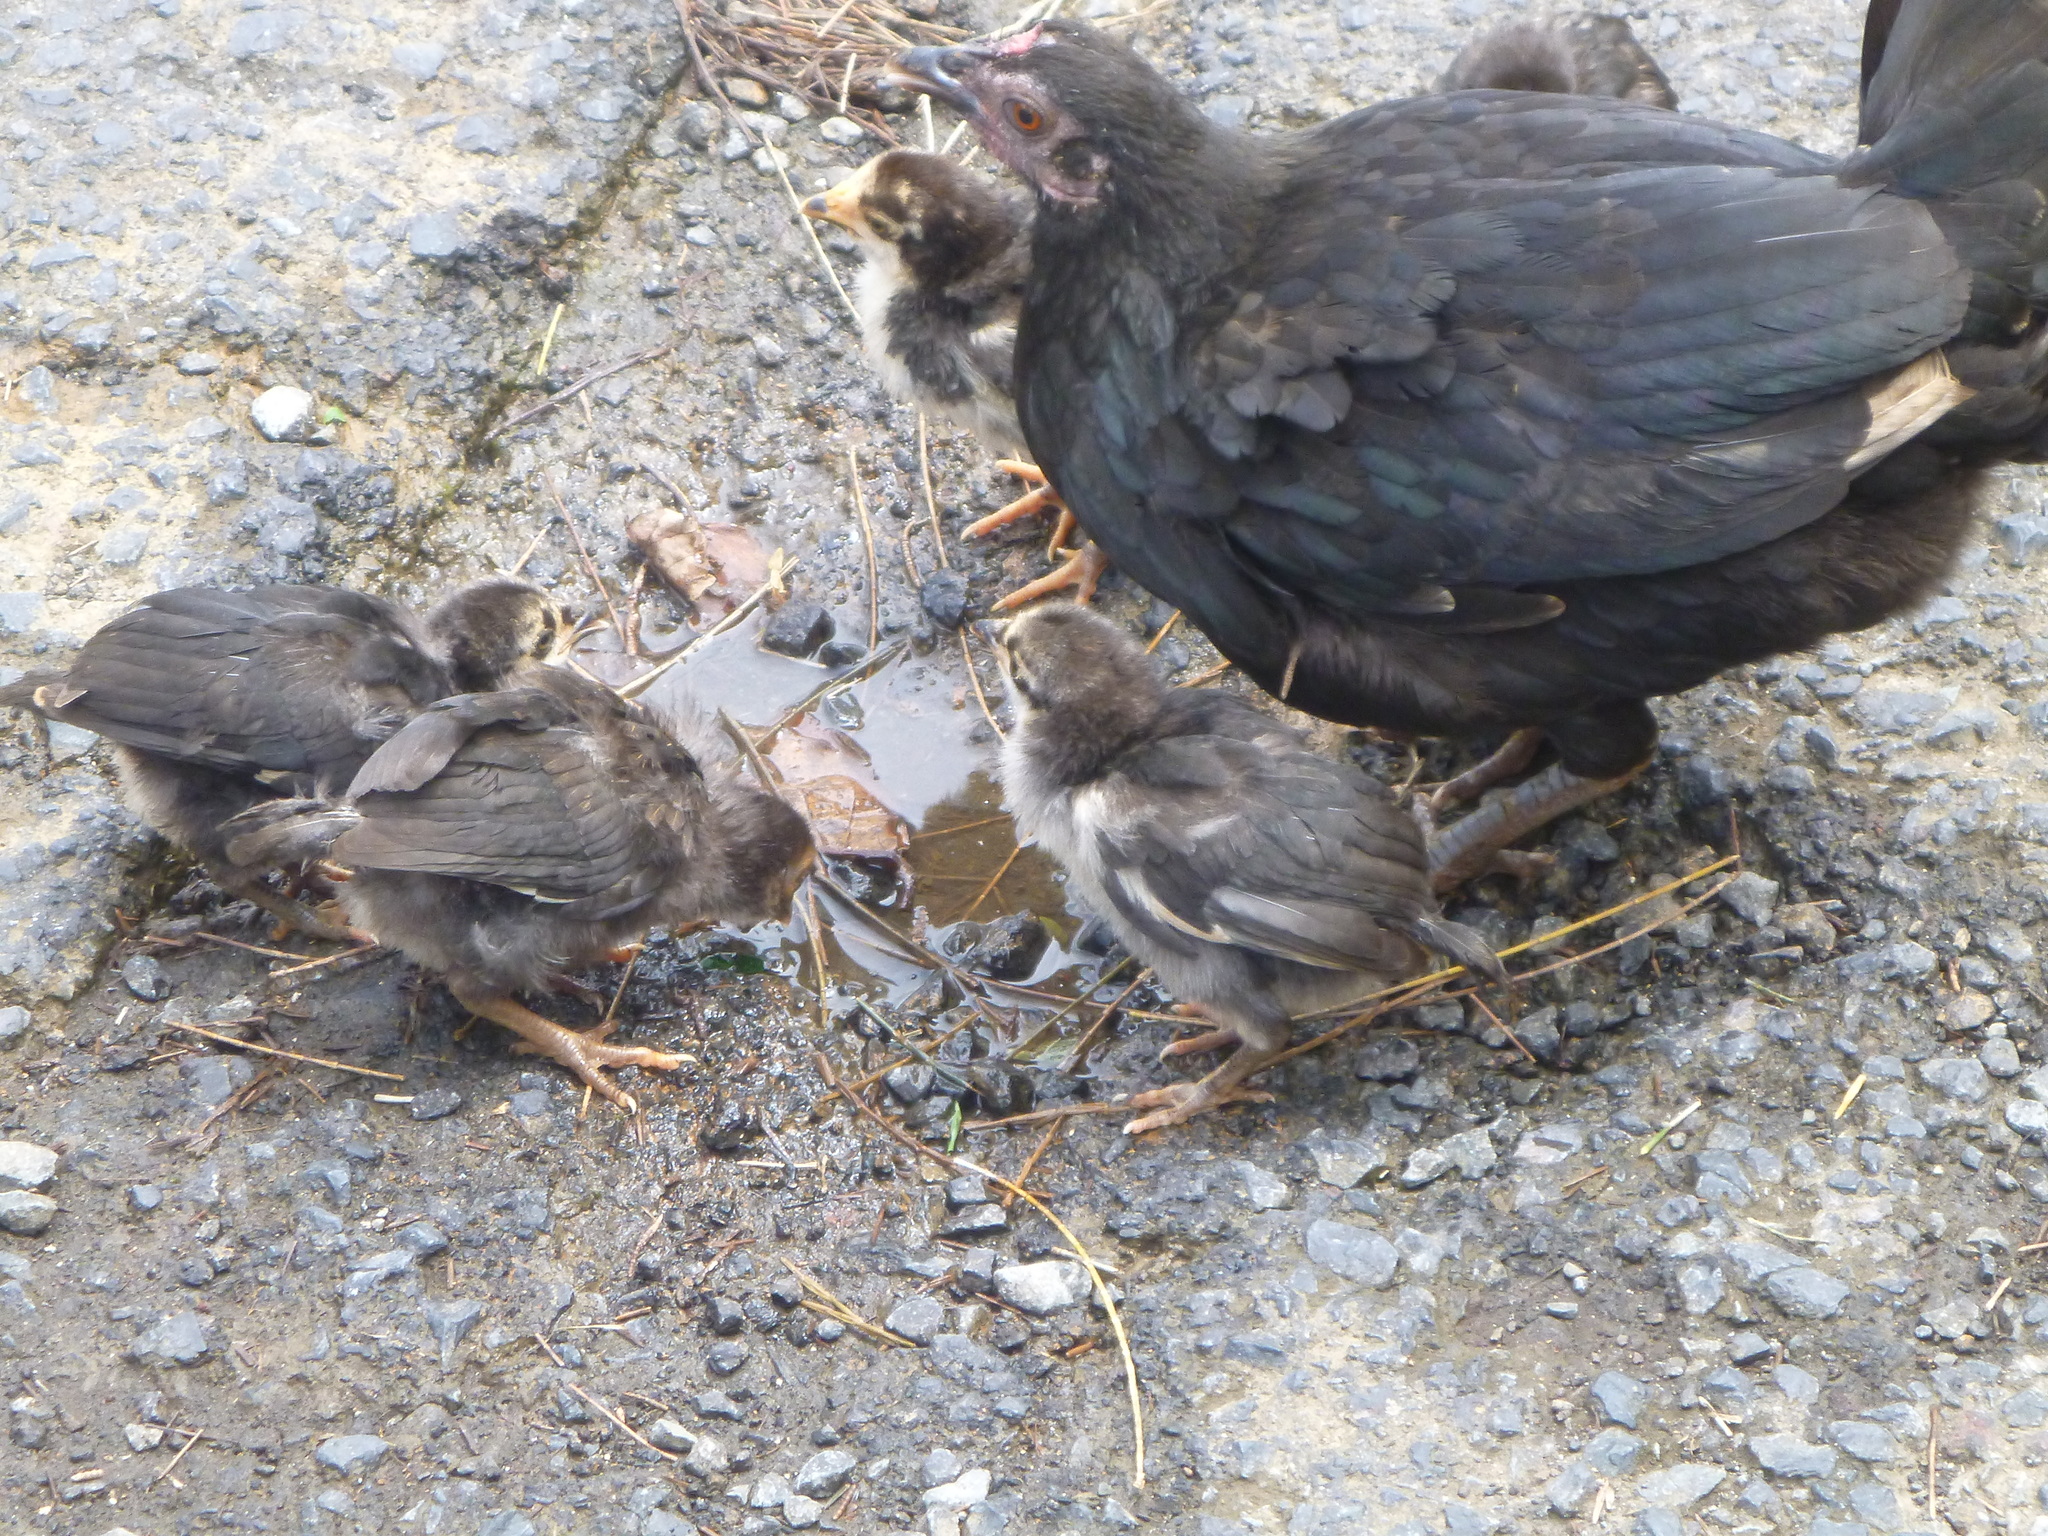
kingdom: Animalia
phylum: Chordata
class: Aves
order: Galliformes
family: Phasianidae
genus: Gallus
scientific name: Gallus gallus
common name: Red junglefowl
